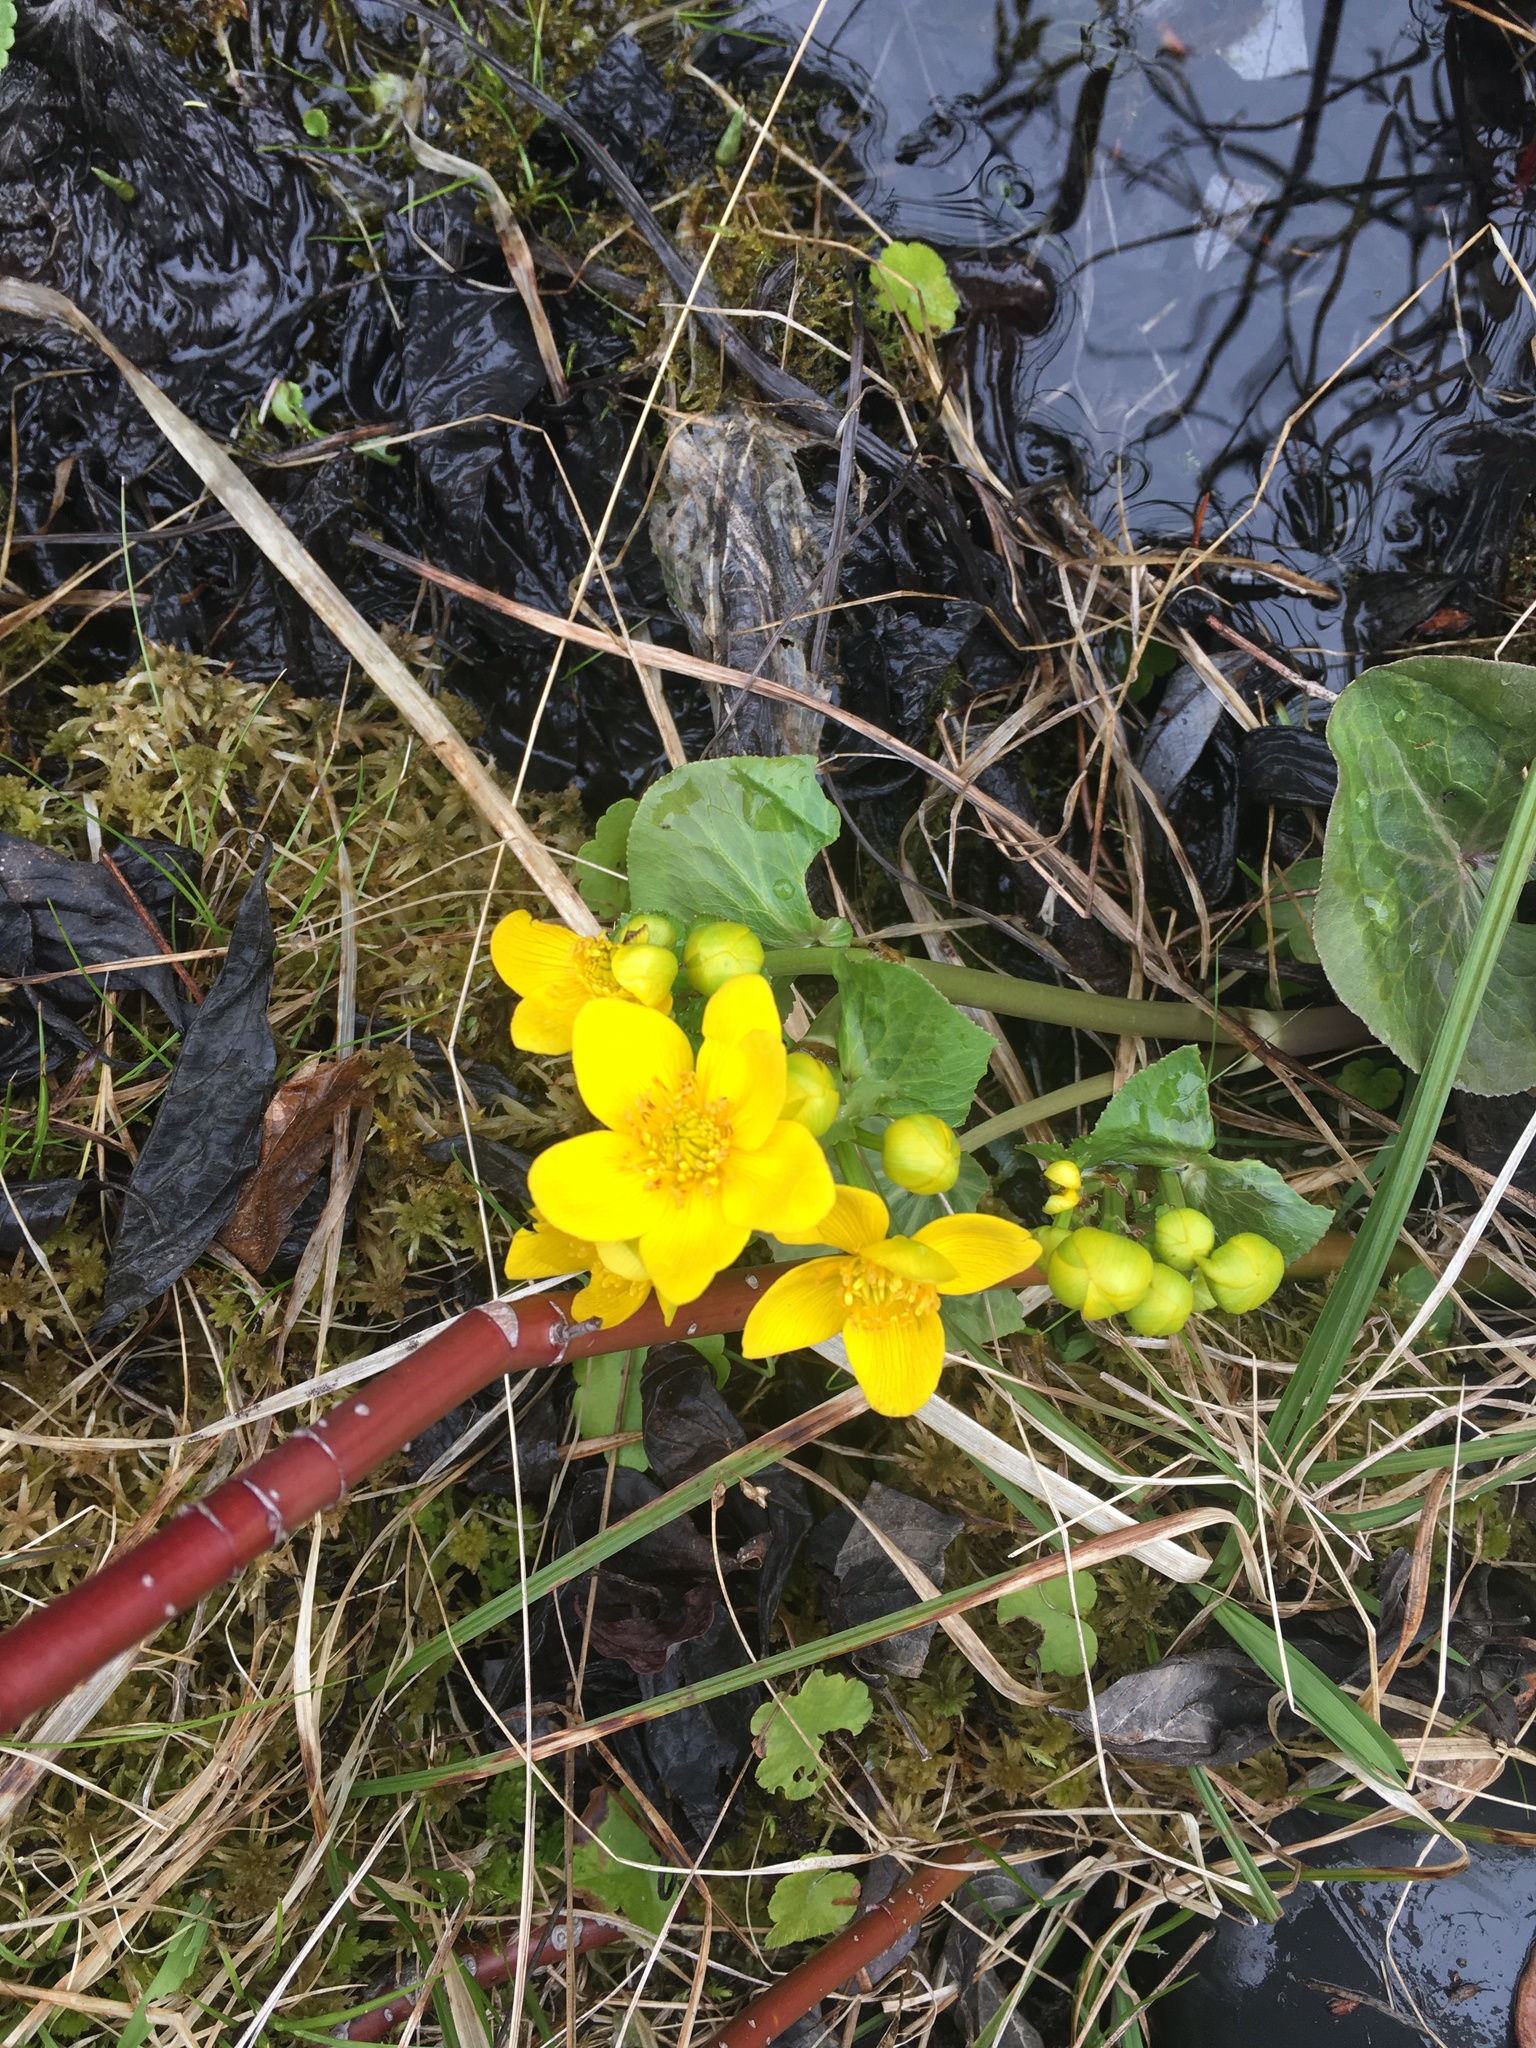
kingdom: Plantae
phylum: Tracheophyta
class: Magnoliopsida
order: Ranunculales
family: Ranunculaceae
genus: Caltha
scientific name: Caltha palustris
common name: Marsh marigold
